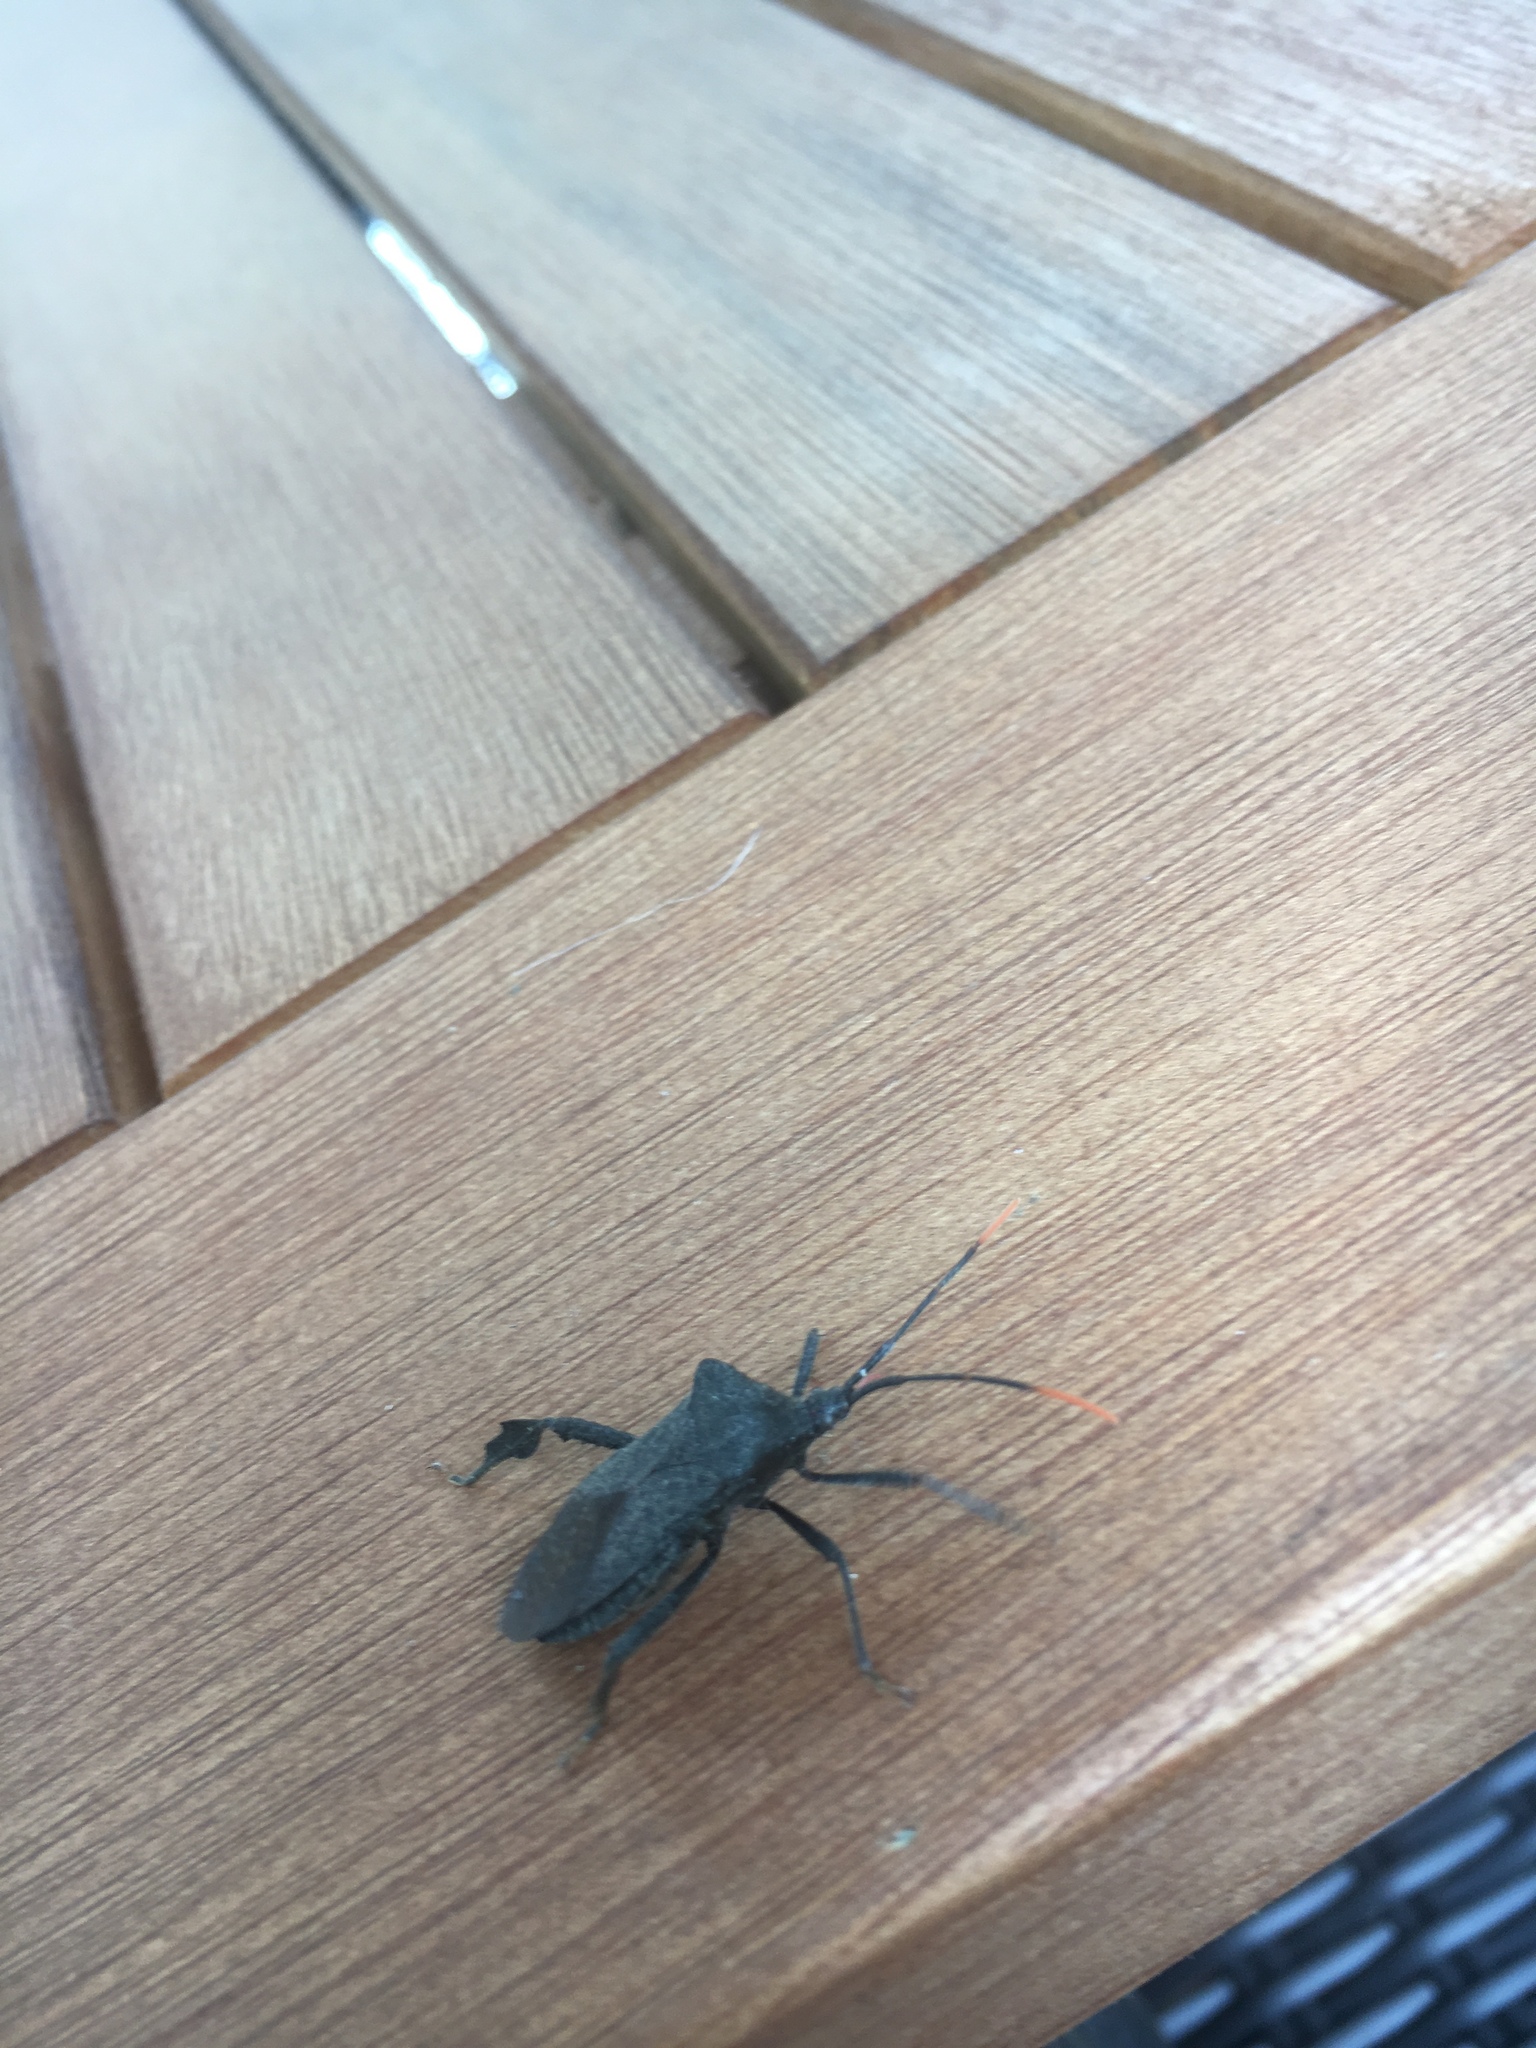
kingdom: Animalia
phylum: Arthropoda
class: Insecta
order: Hemiptera
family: Coreidae
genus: Acanthocephala
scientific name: Acanthocephala terminalis
